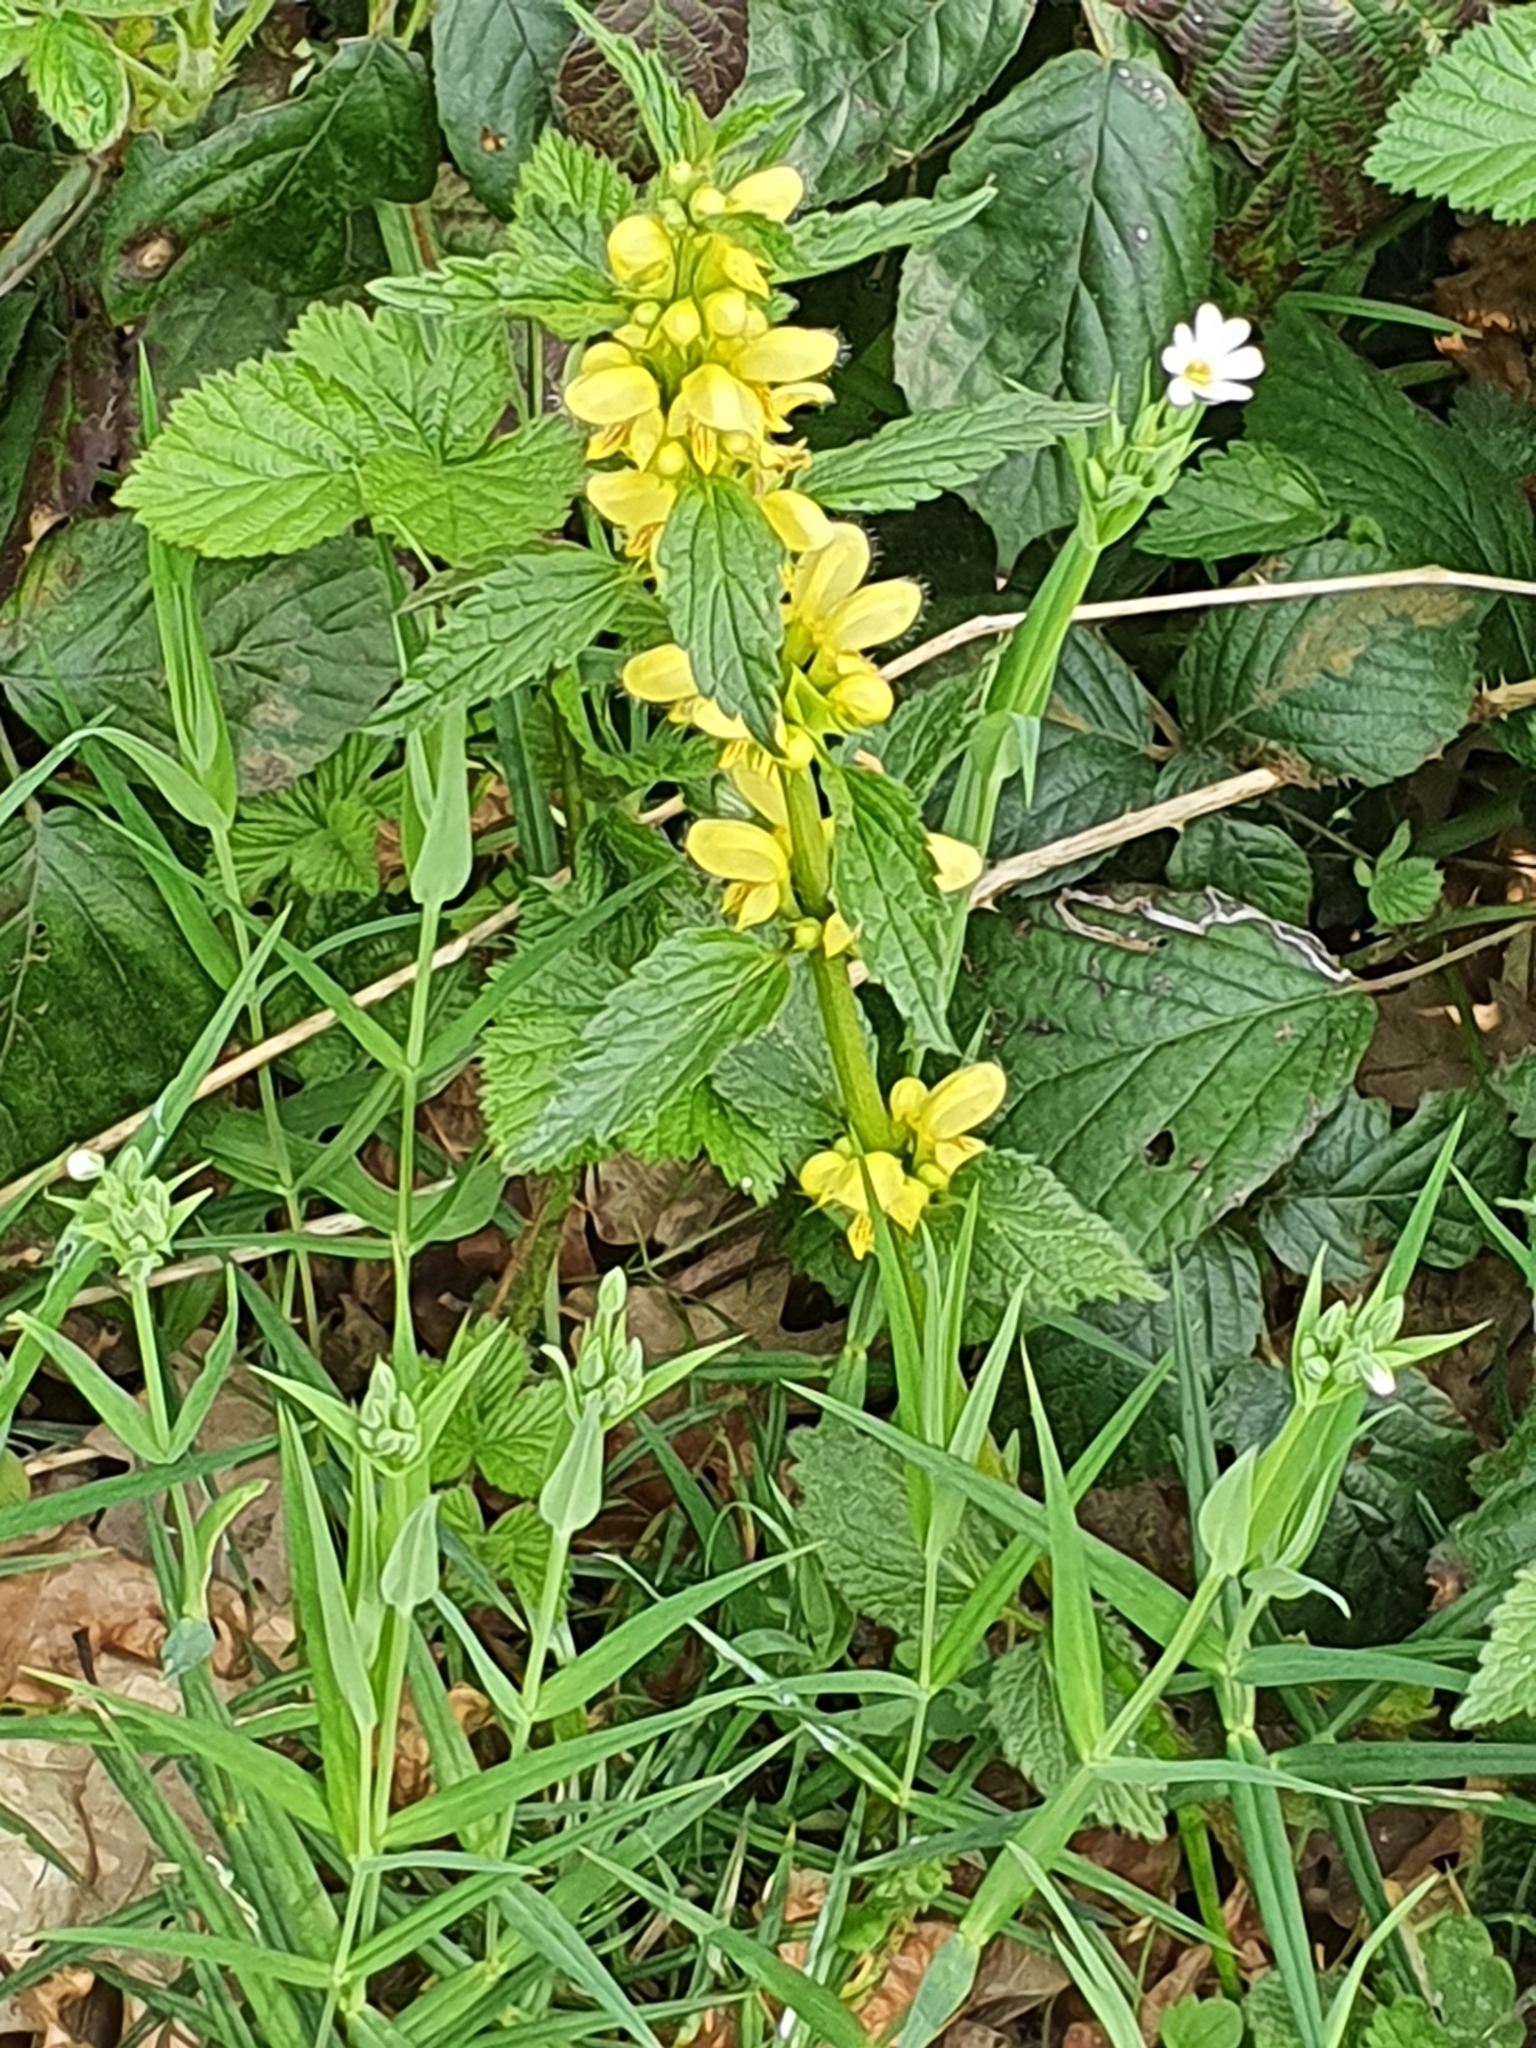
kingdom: Plantae
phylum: Tracheophyta
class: Magnoliopsida
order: Lamiales
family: Lamiaceae
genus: Lamium
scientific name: Lamium galeobdolon
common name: Yellow archangel
